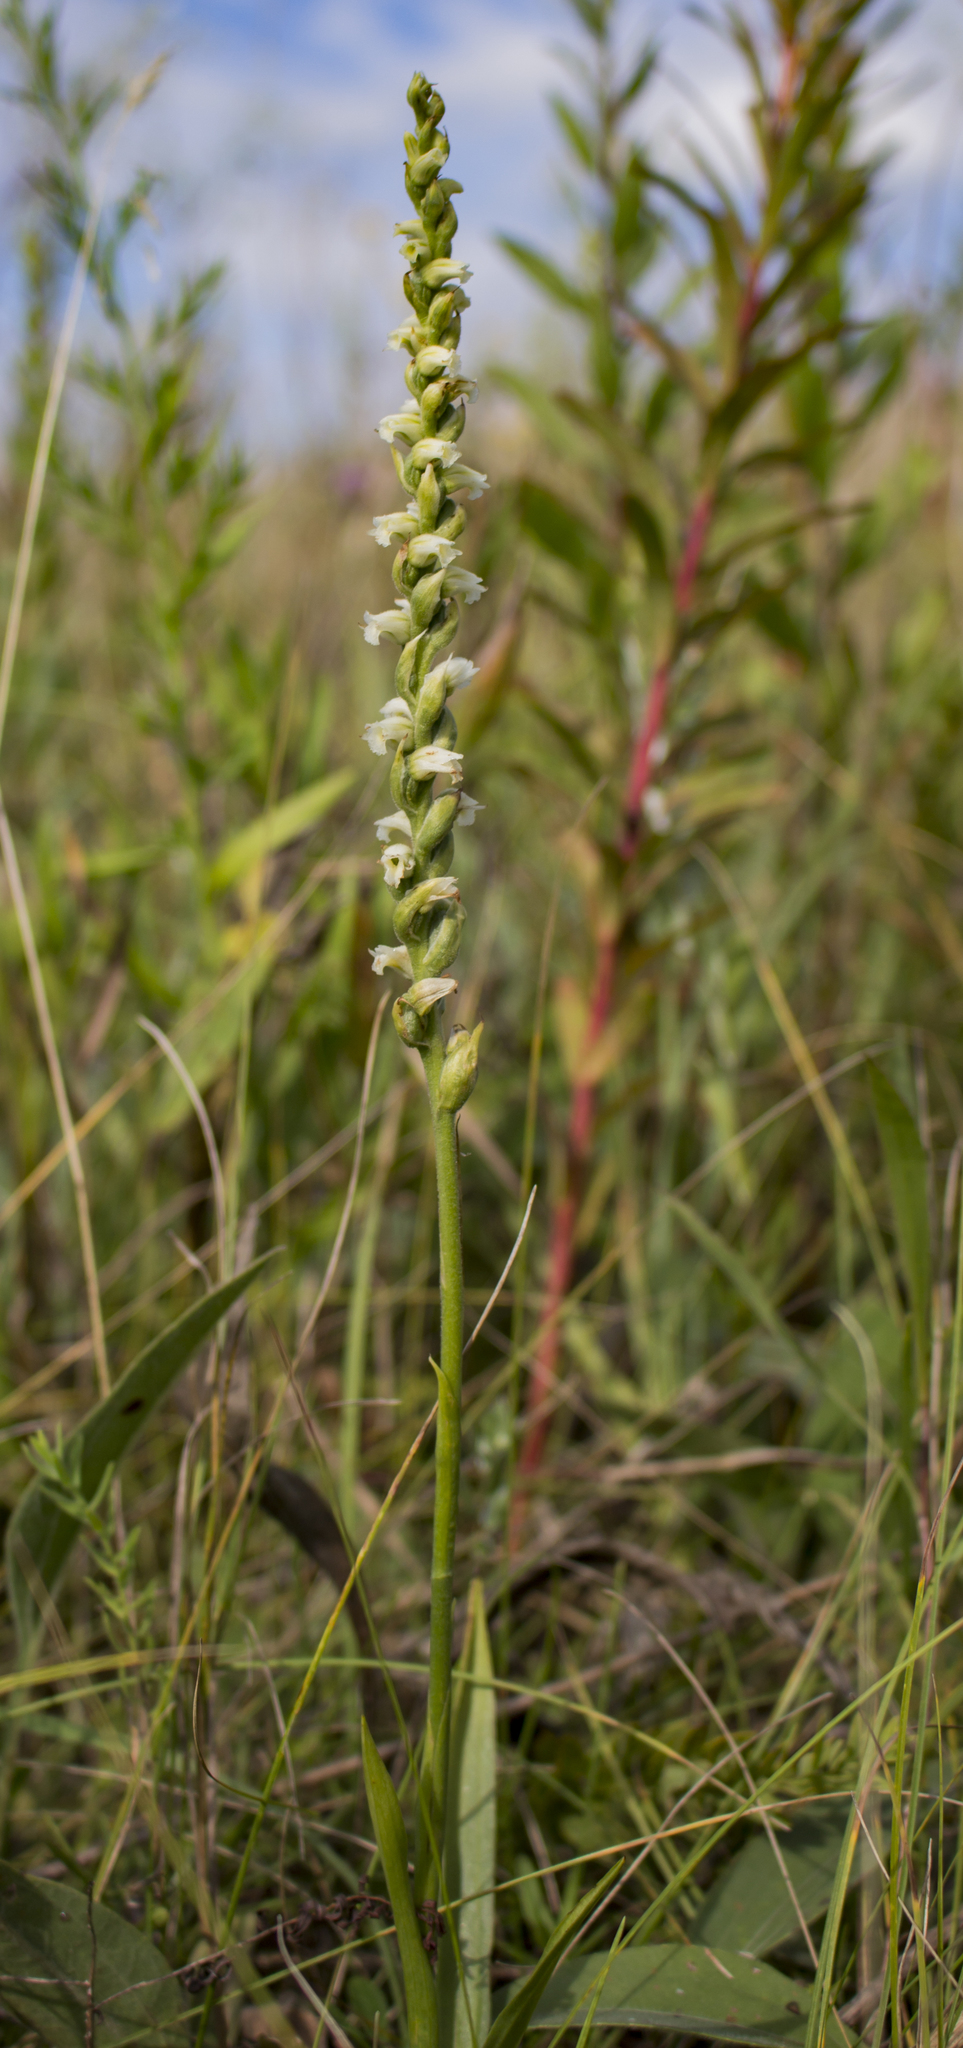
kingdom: Plantae
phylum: Tracheophyta
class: Liliopsida
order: Asparagales
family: Orchidaceae
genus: Spiranthes
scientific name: Spiranthes casei
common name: Case's ladies'-tresses
